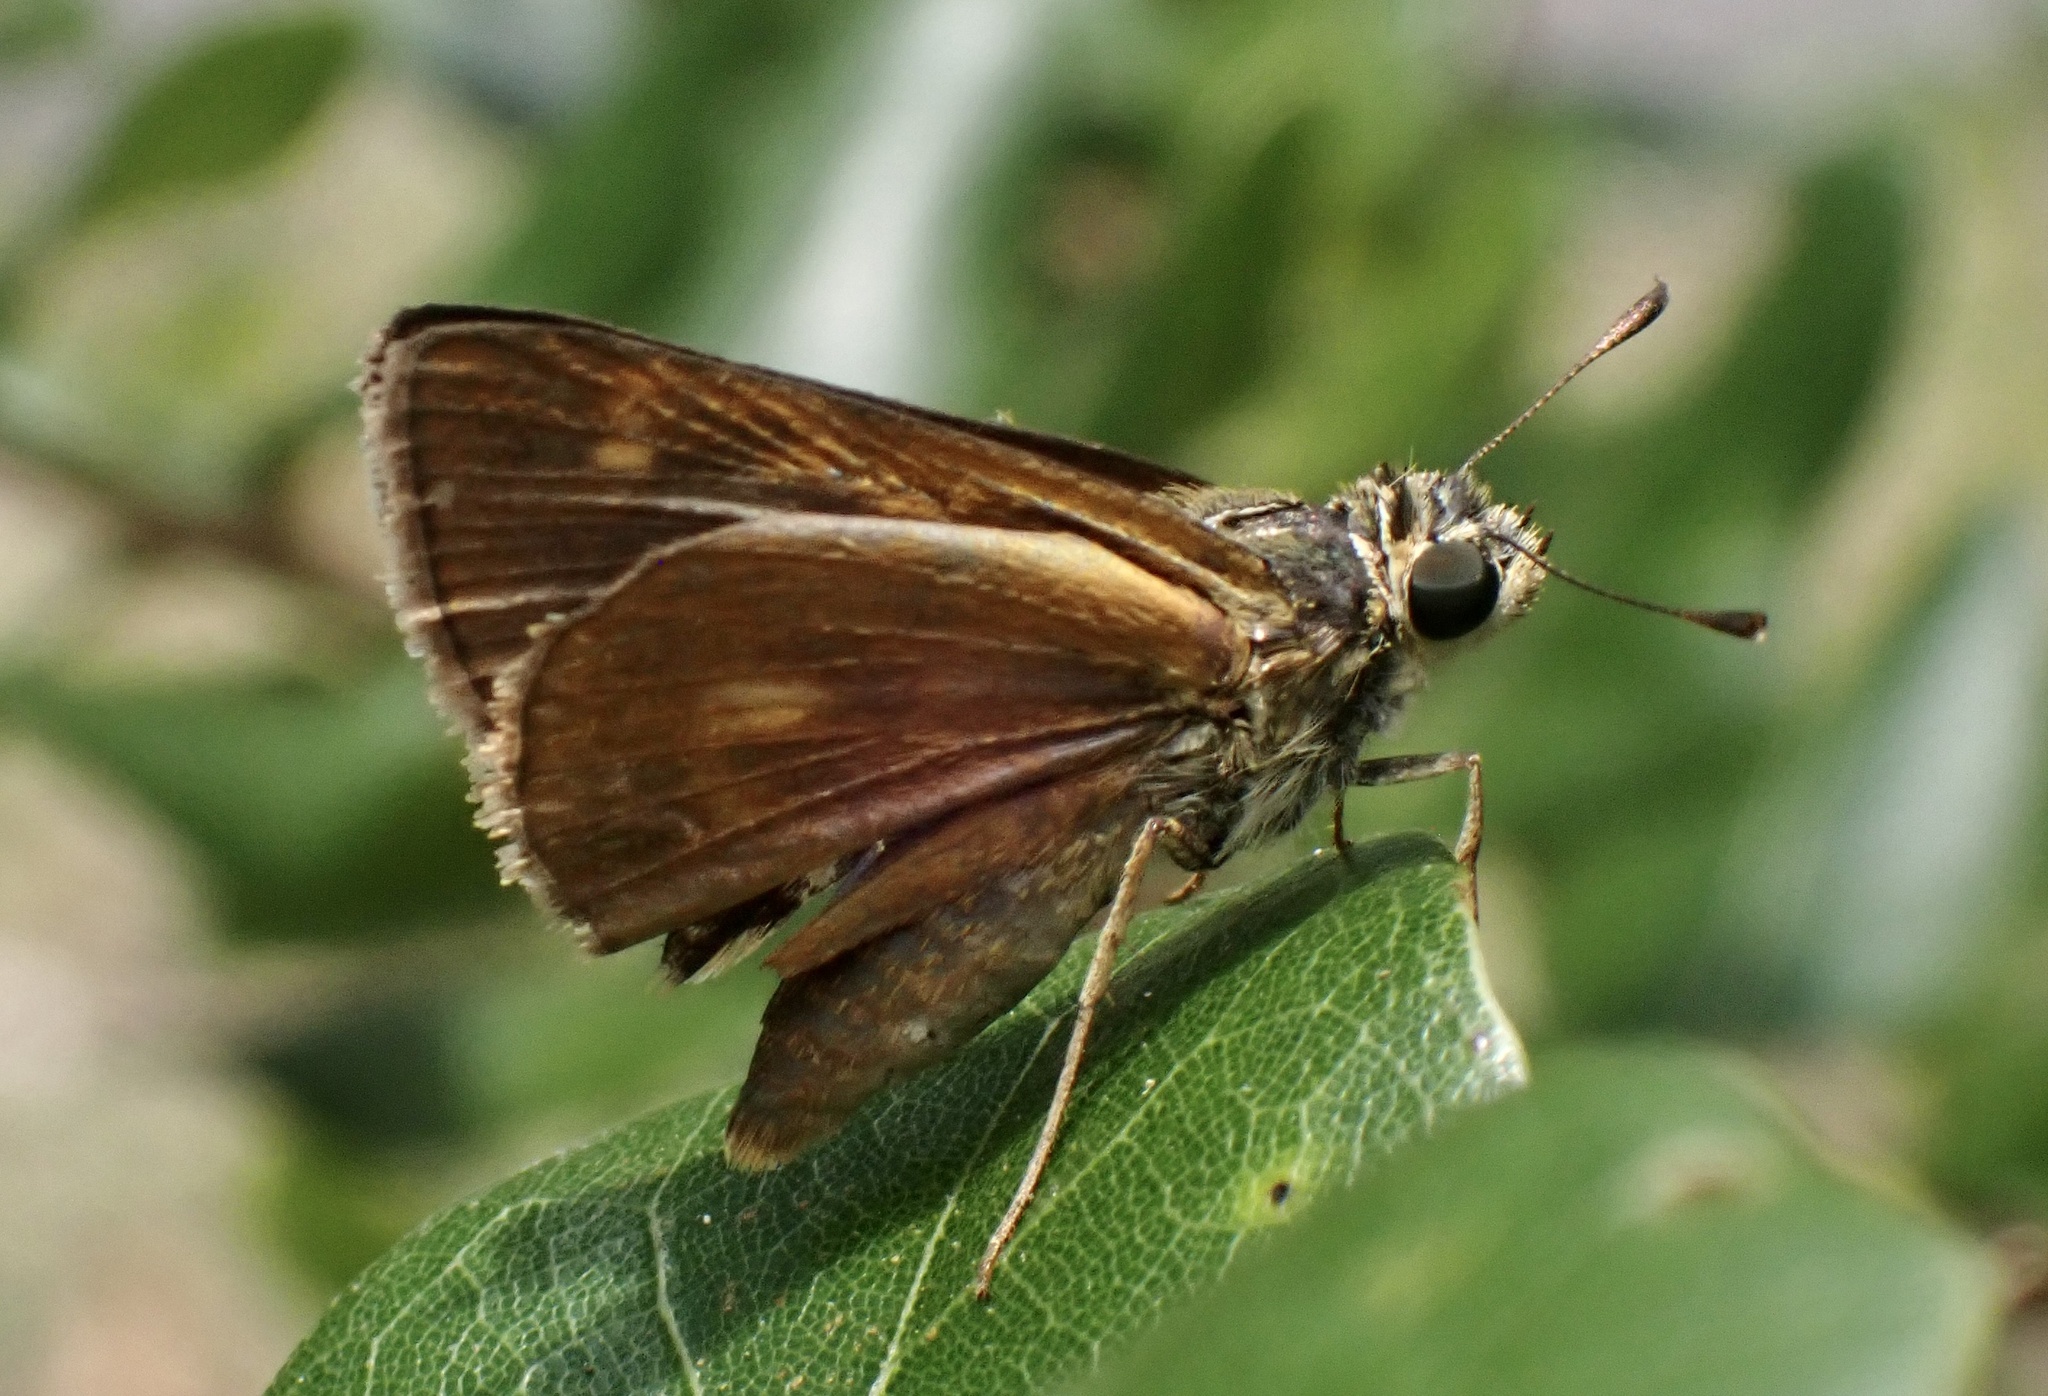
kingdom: Animalia
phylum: Arthropoda
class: Insecta
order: Lepidoptera
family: Hesperiidae
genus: Polites
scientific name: Polites otho
